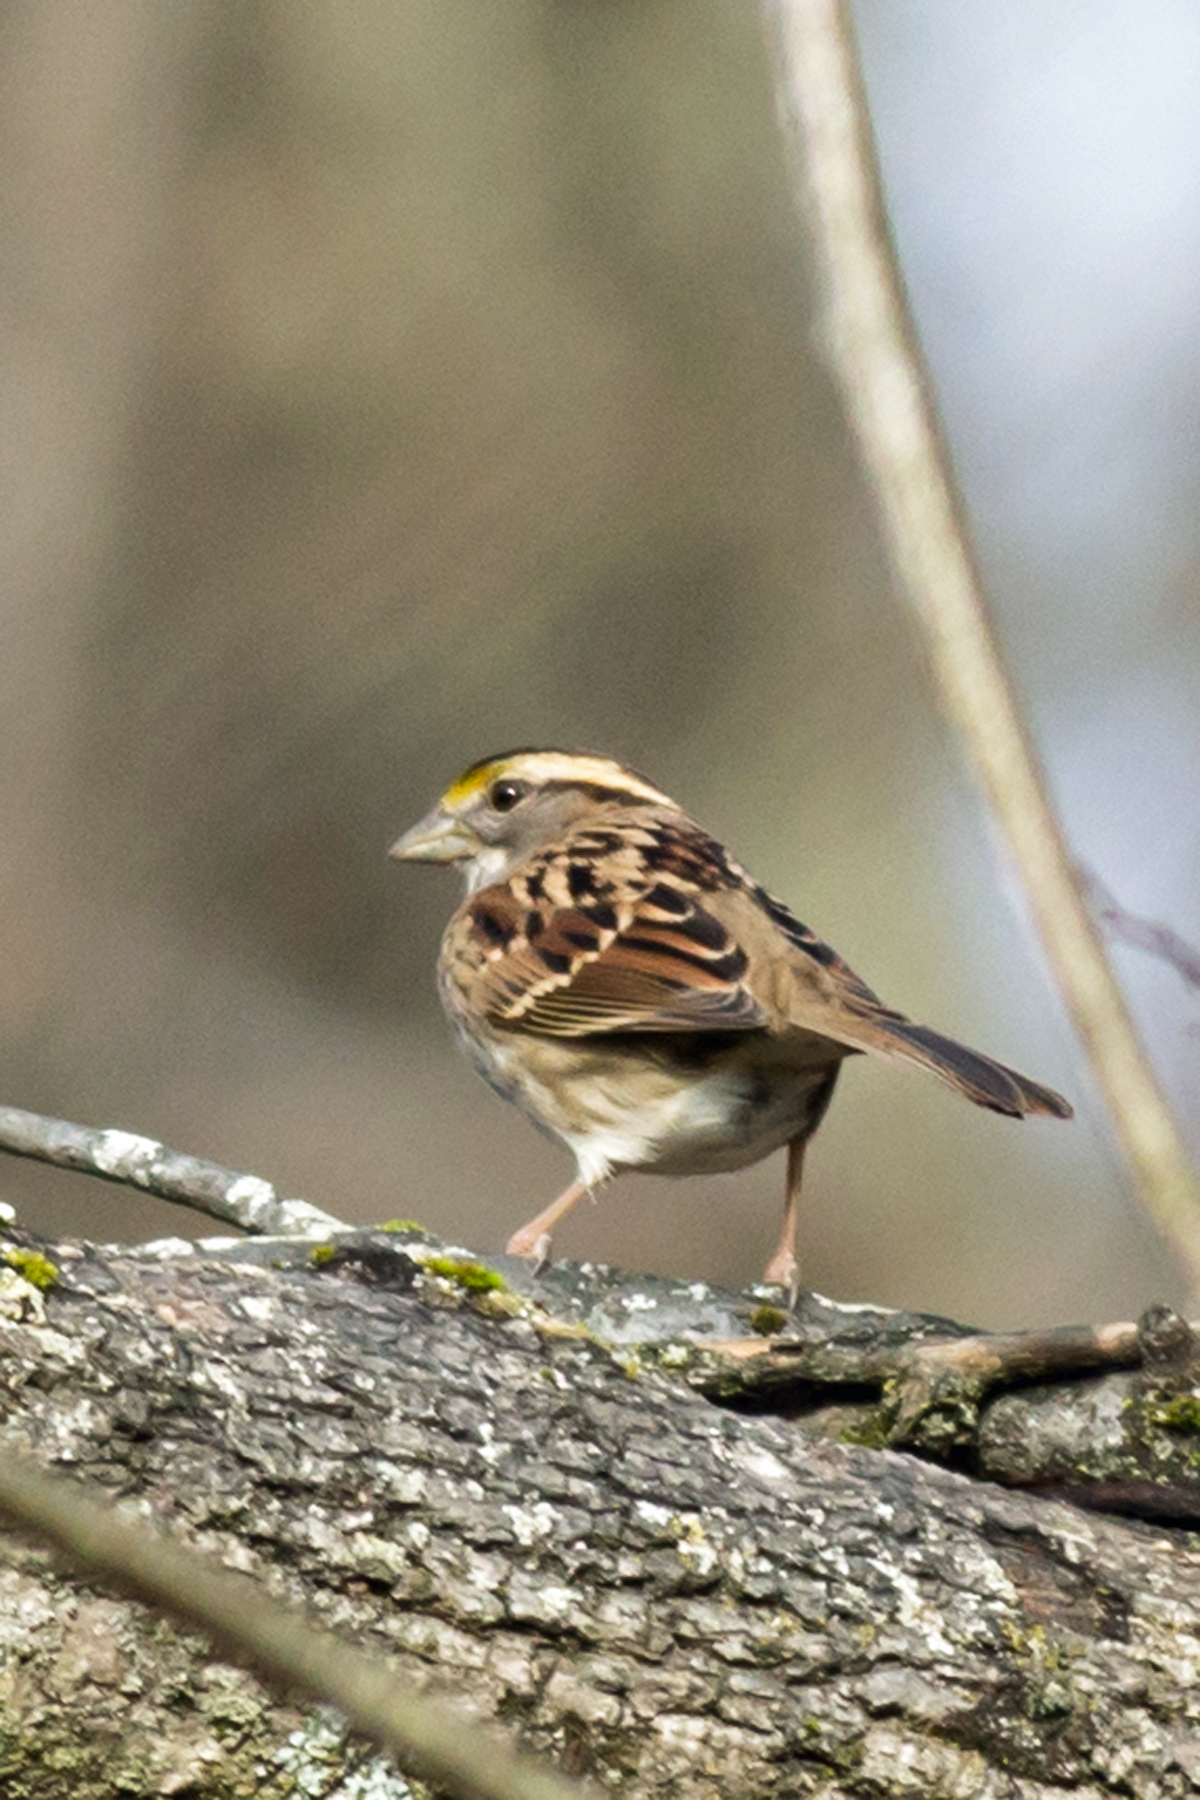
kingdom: Animalia
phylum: Chordata
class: Aves
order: Passeriformes
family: Passerellidae
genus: Zonotrichia
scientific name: Zonotrichia albicollis
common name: White-throated sparrow
